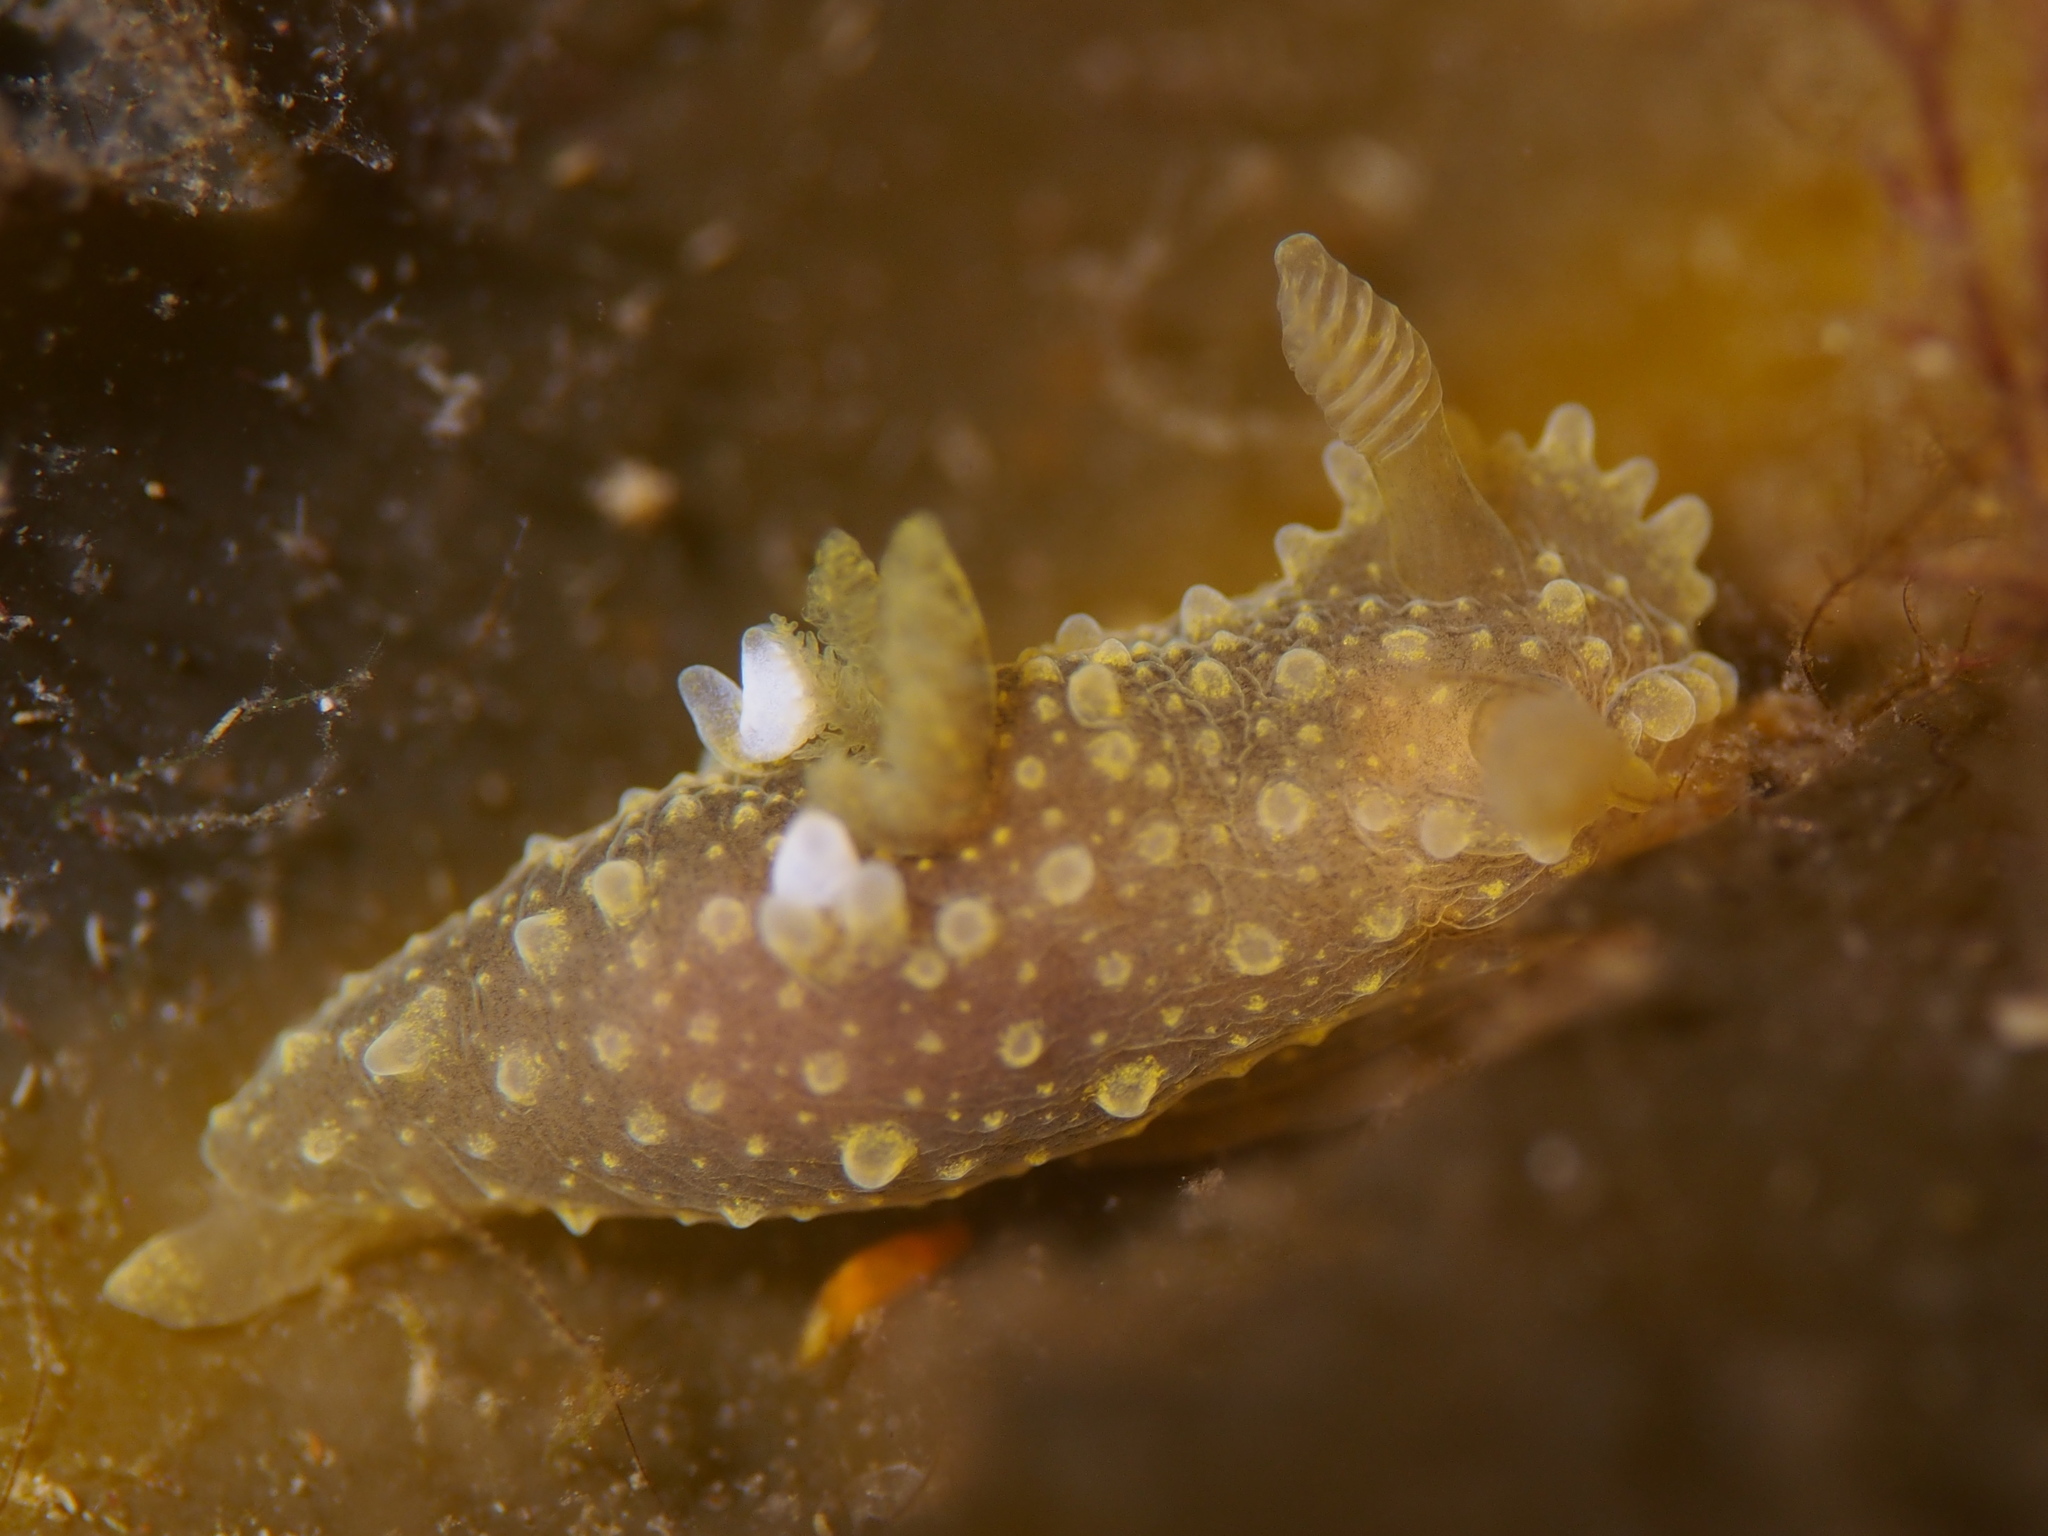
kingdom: Animalia
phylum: Mollusca
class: Gastropoda
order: Nudibranchia
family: Polyceridae
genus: Palio
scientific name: Palio dubia
